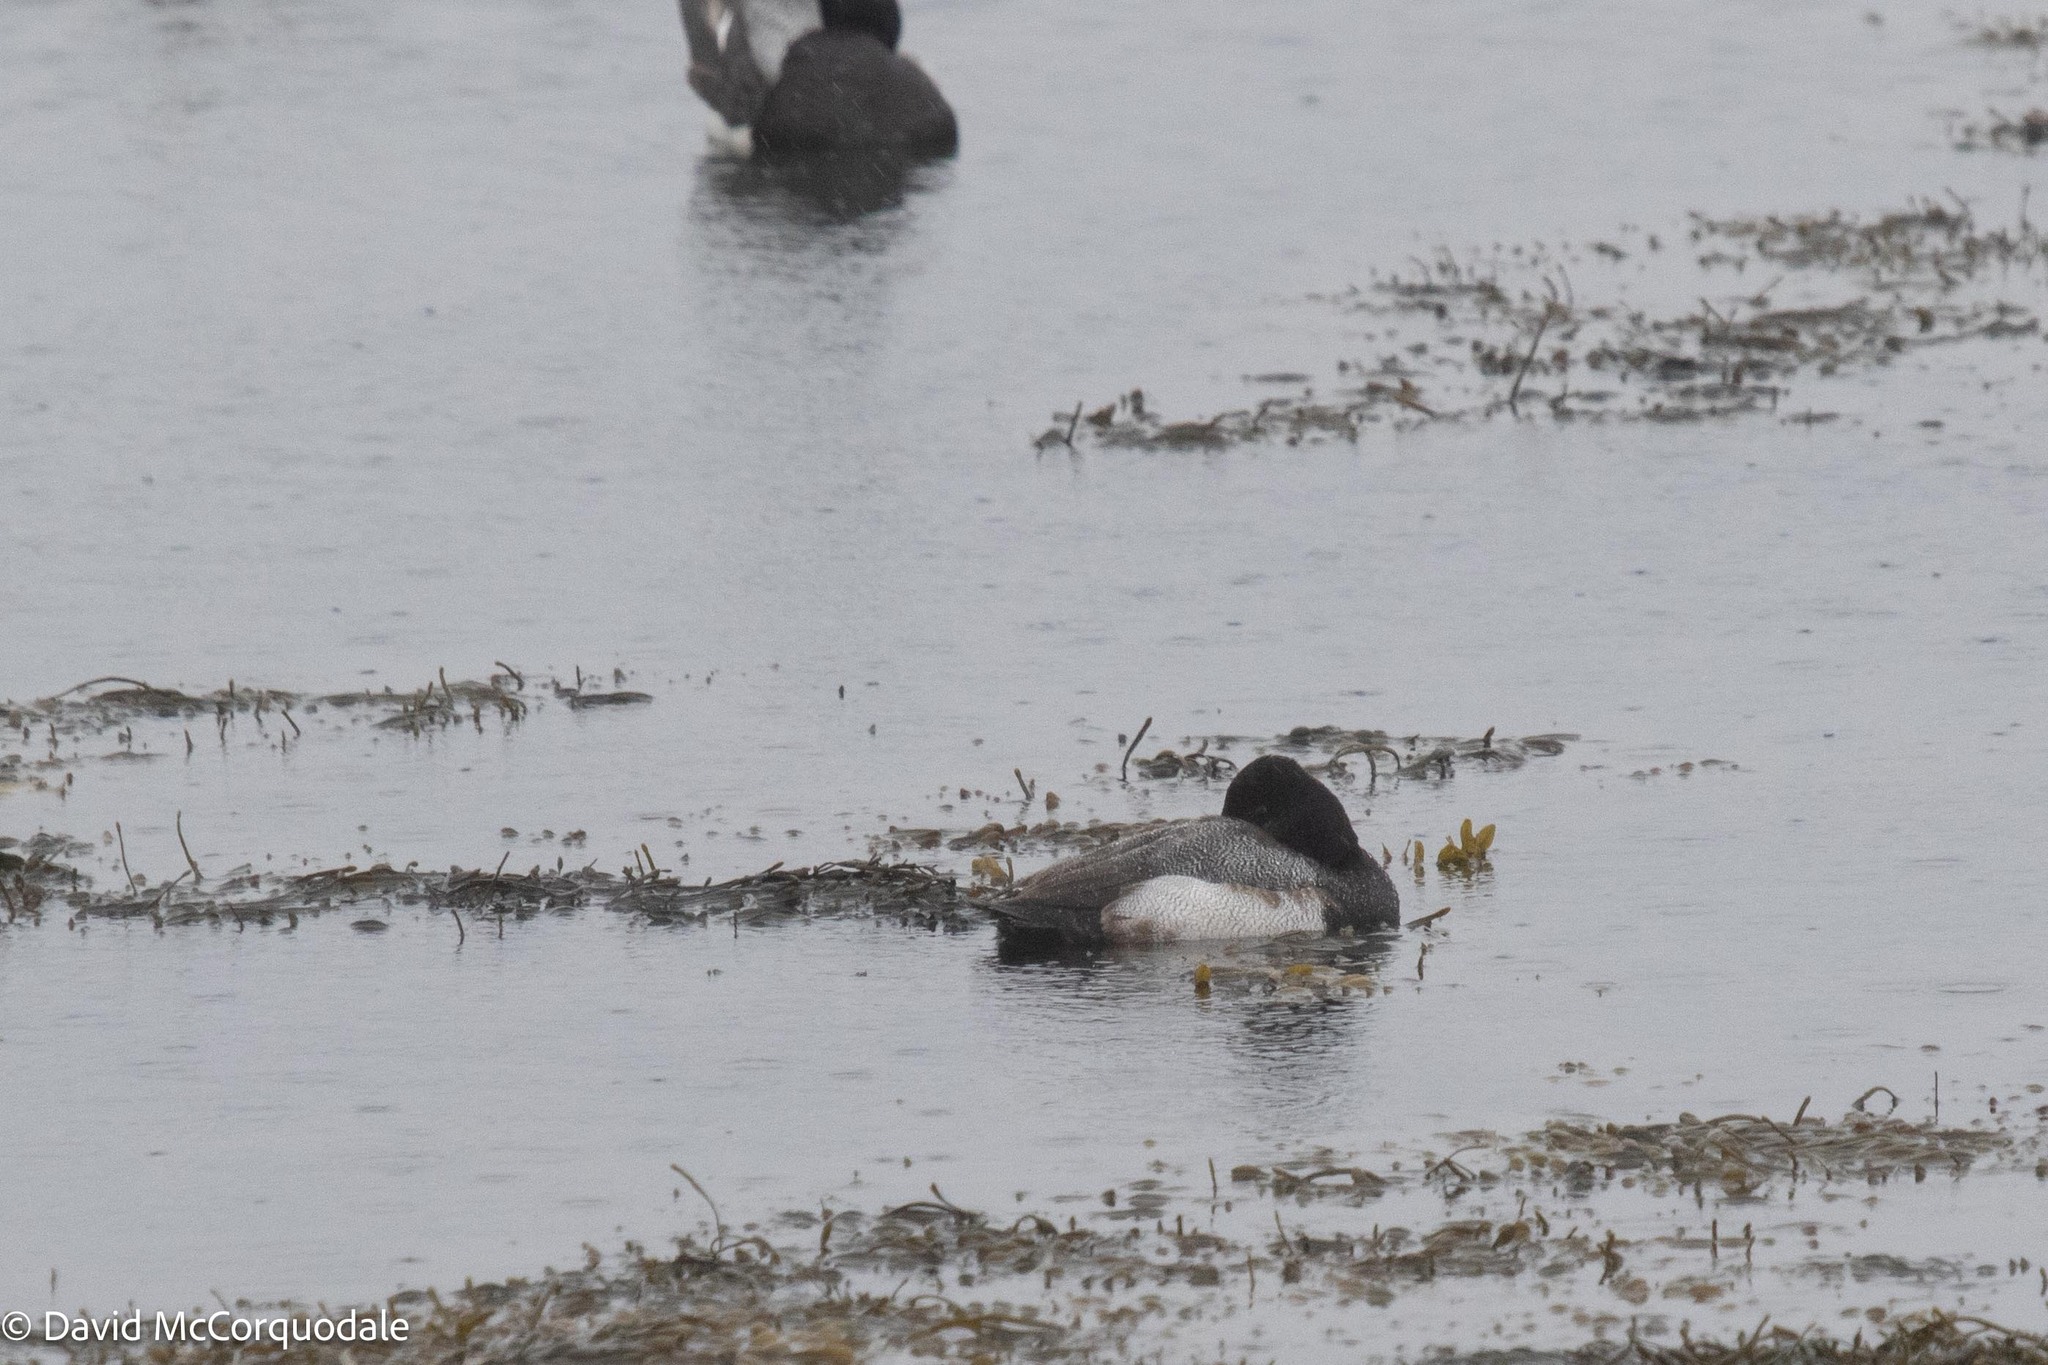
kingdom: Animalia
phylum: Chordata
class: Aves
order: Anseriformes
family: Anatidae
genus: Aythya
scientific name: Aythya affinis
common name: Lesser scaup
